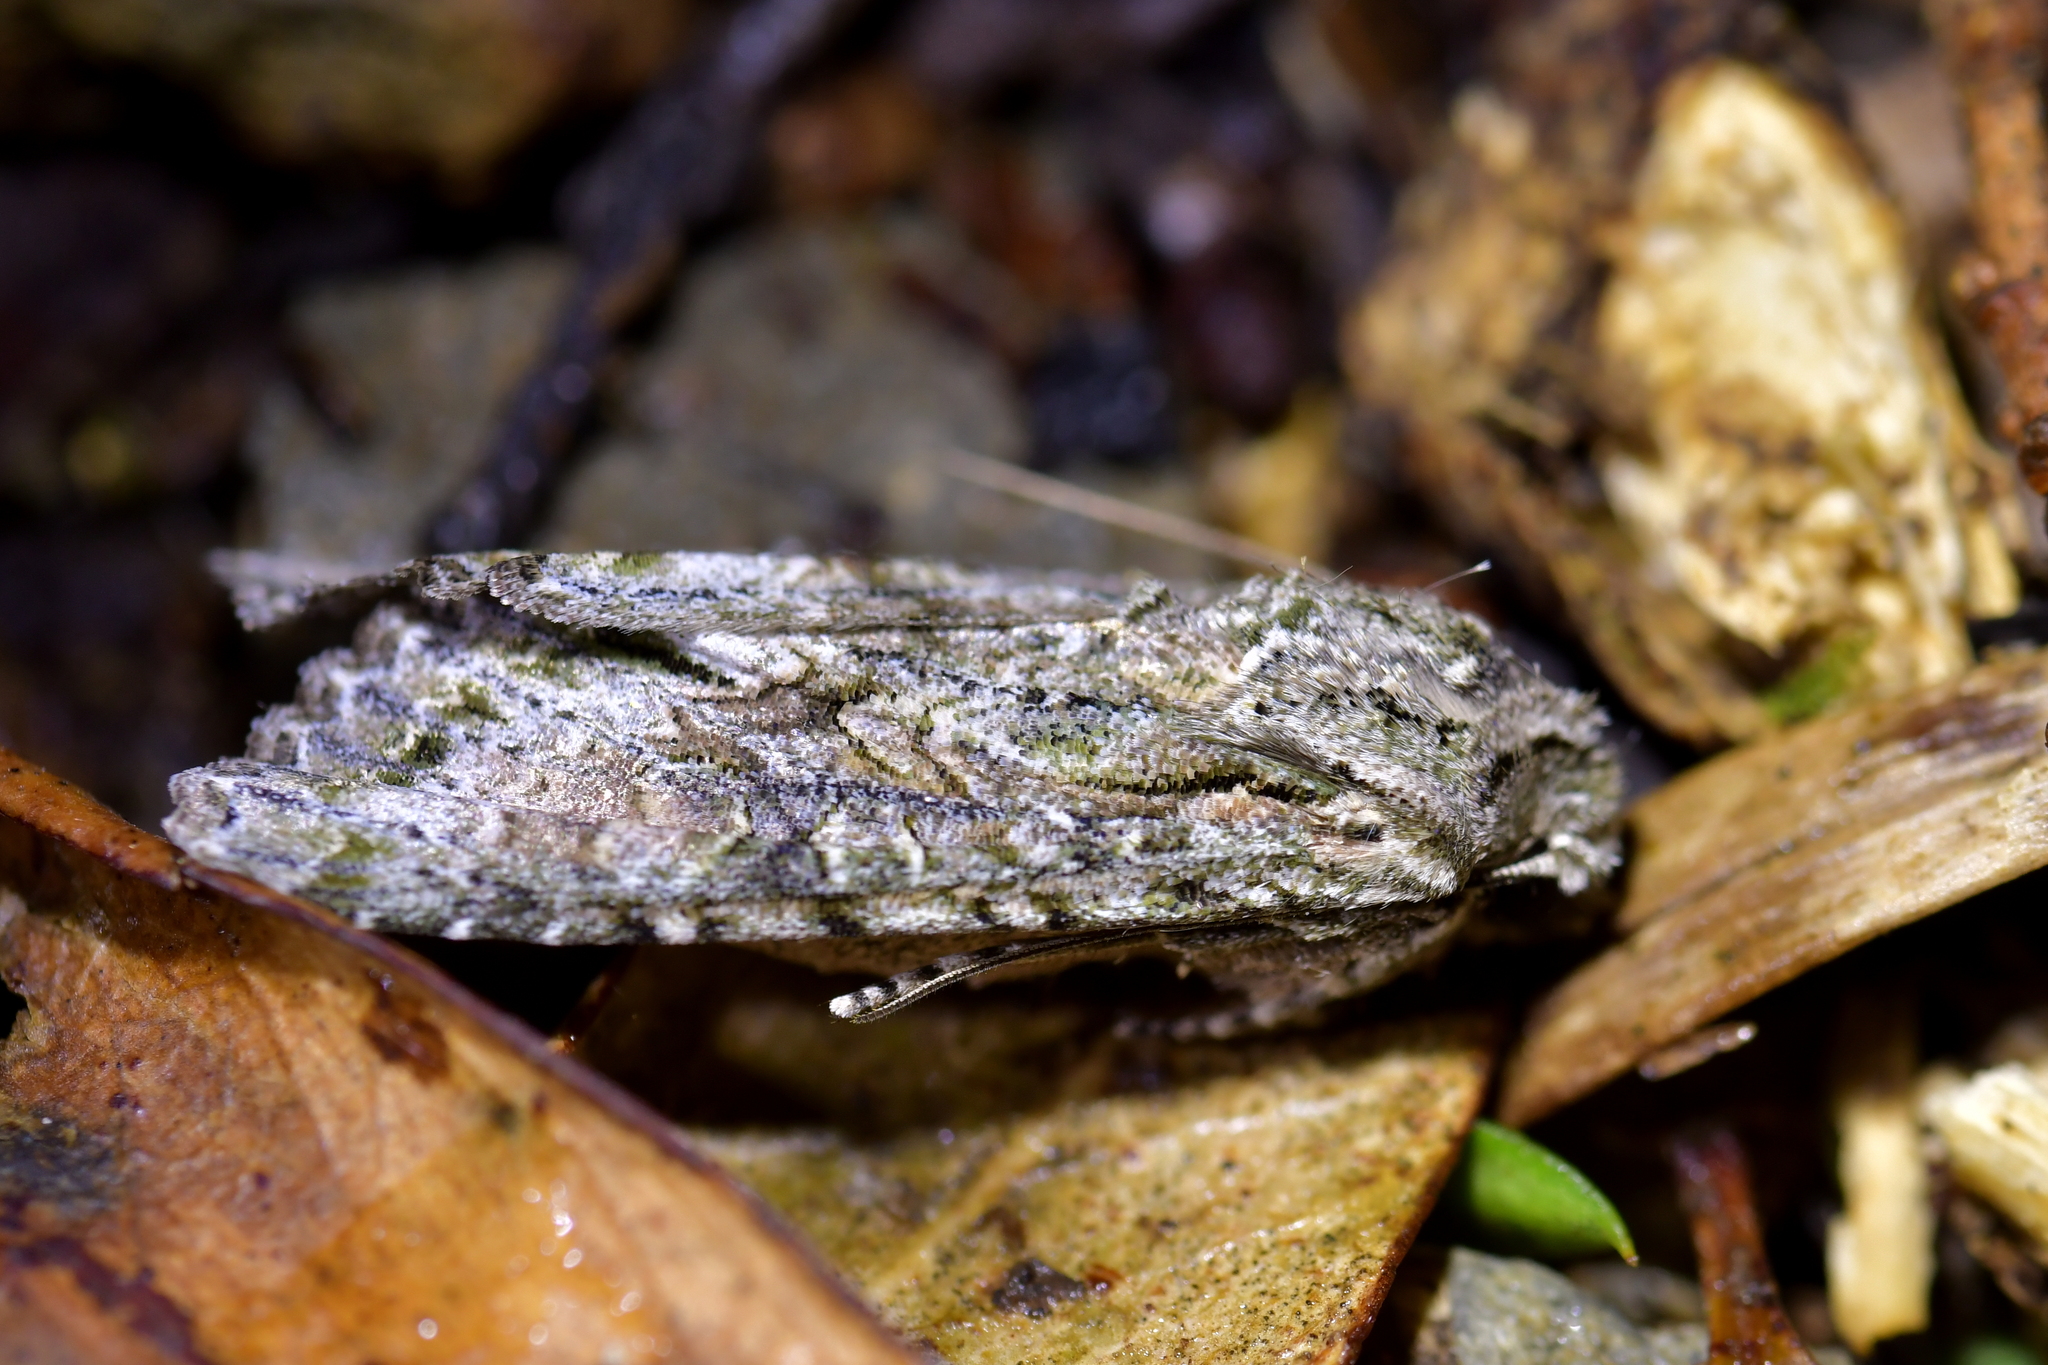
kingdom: Animalia
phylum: Arthropoda
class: Insecta
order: Lepidoptera
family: Noctuidae
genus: Ichneutica
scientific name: Ichneutica mutans
